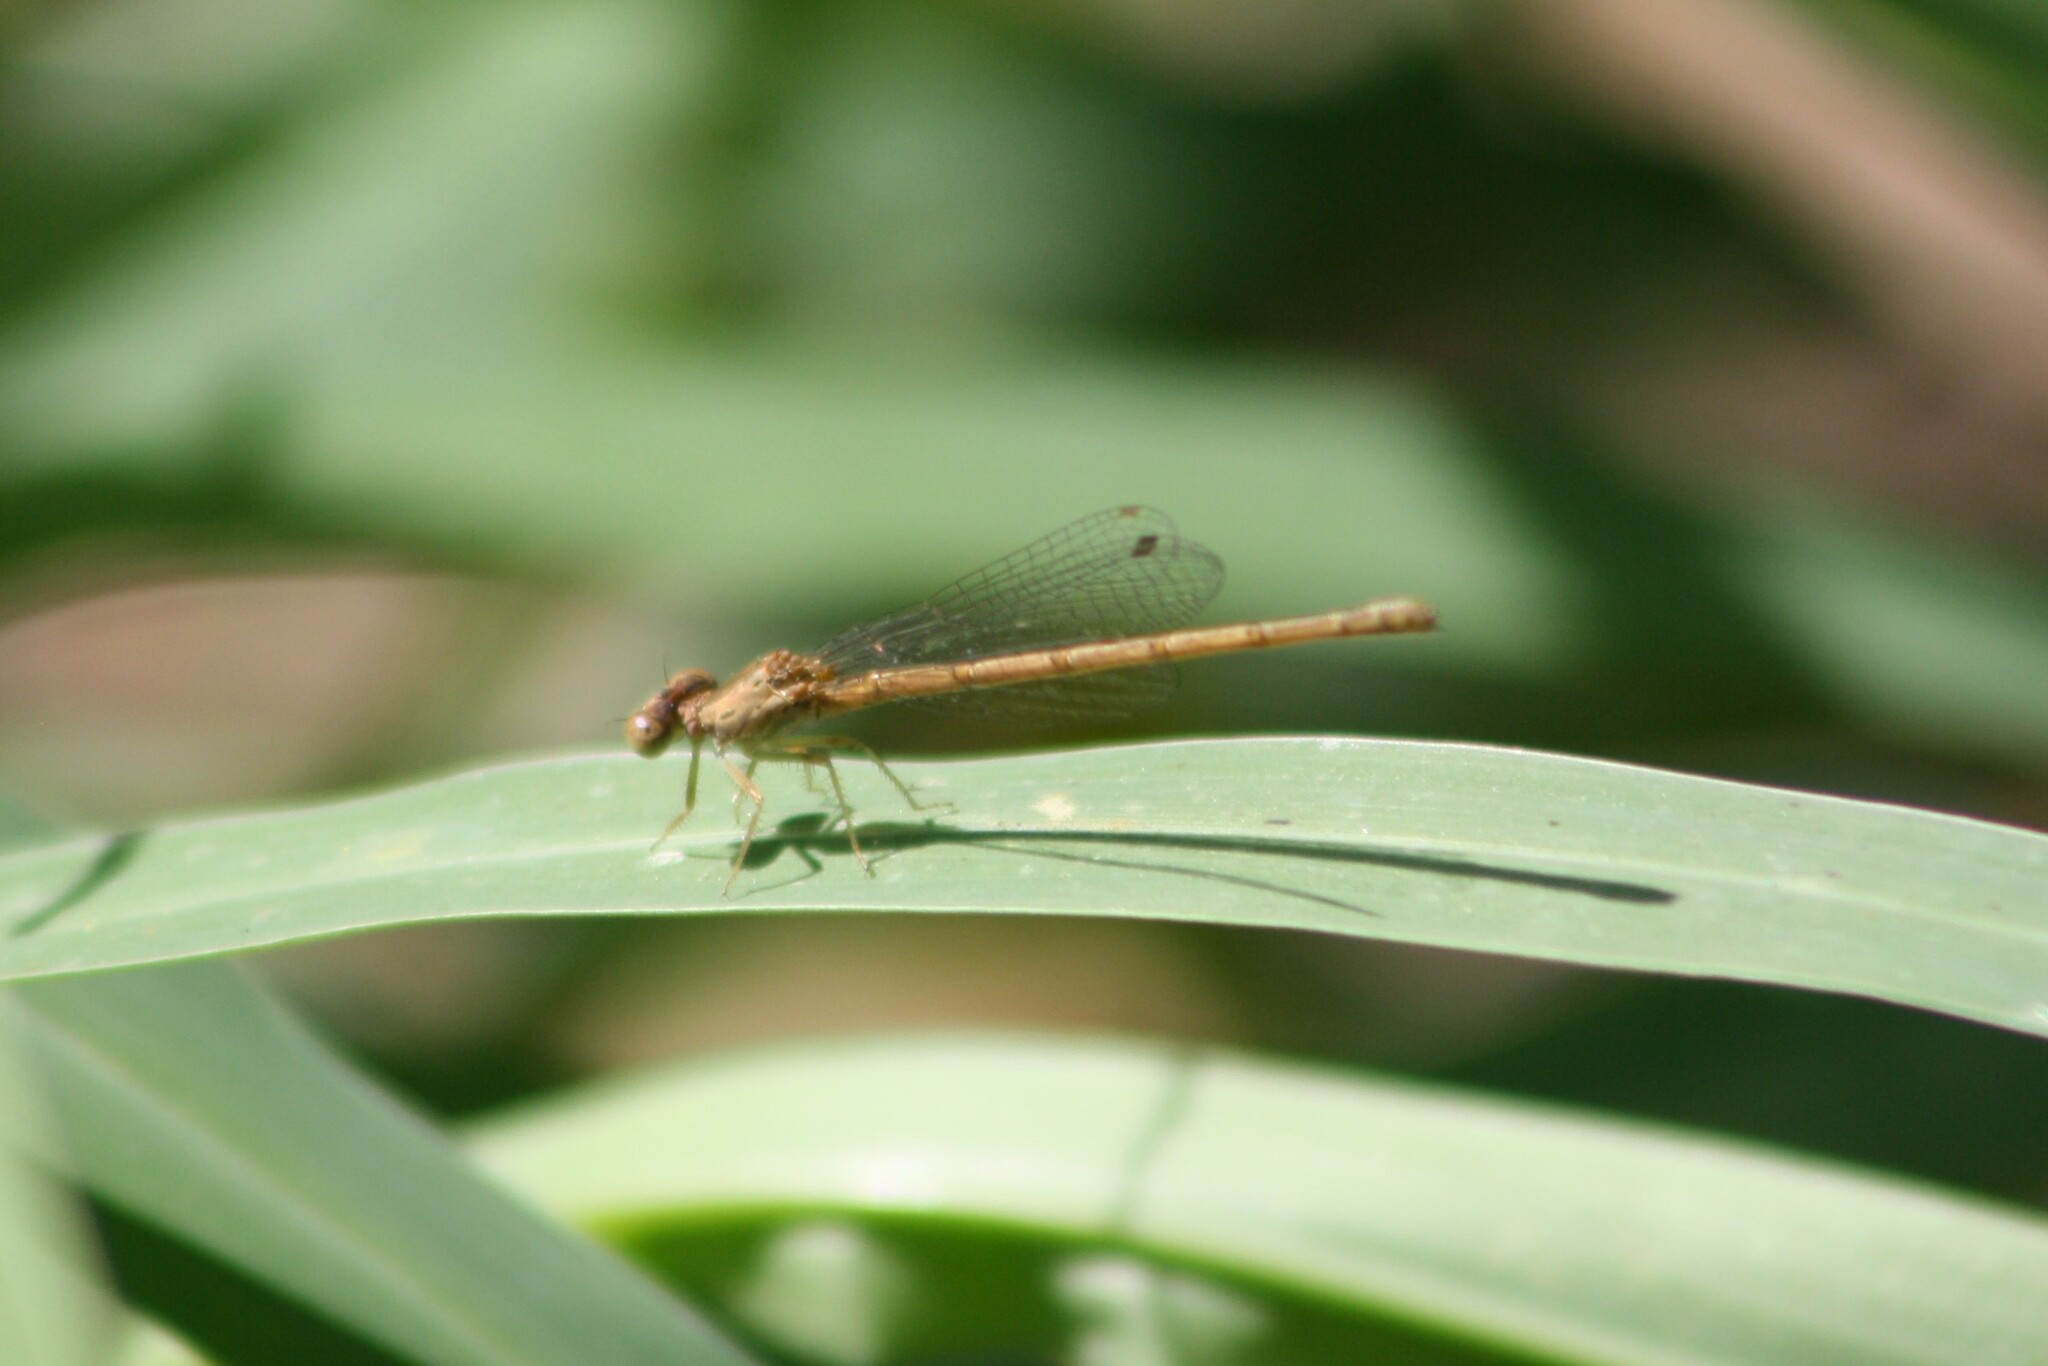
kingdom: Animalia
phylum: Arthropoda
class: Insecta
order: Odonata
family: Coenagrionidae
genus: Telebasis
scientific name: Telebasis salva
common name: Desert firetail
